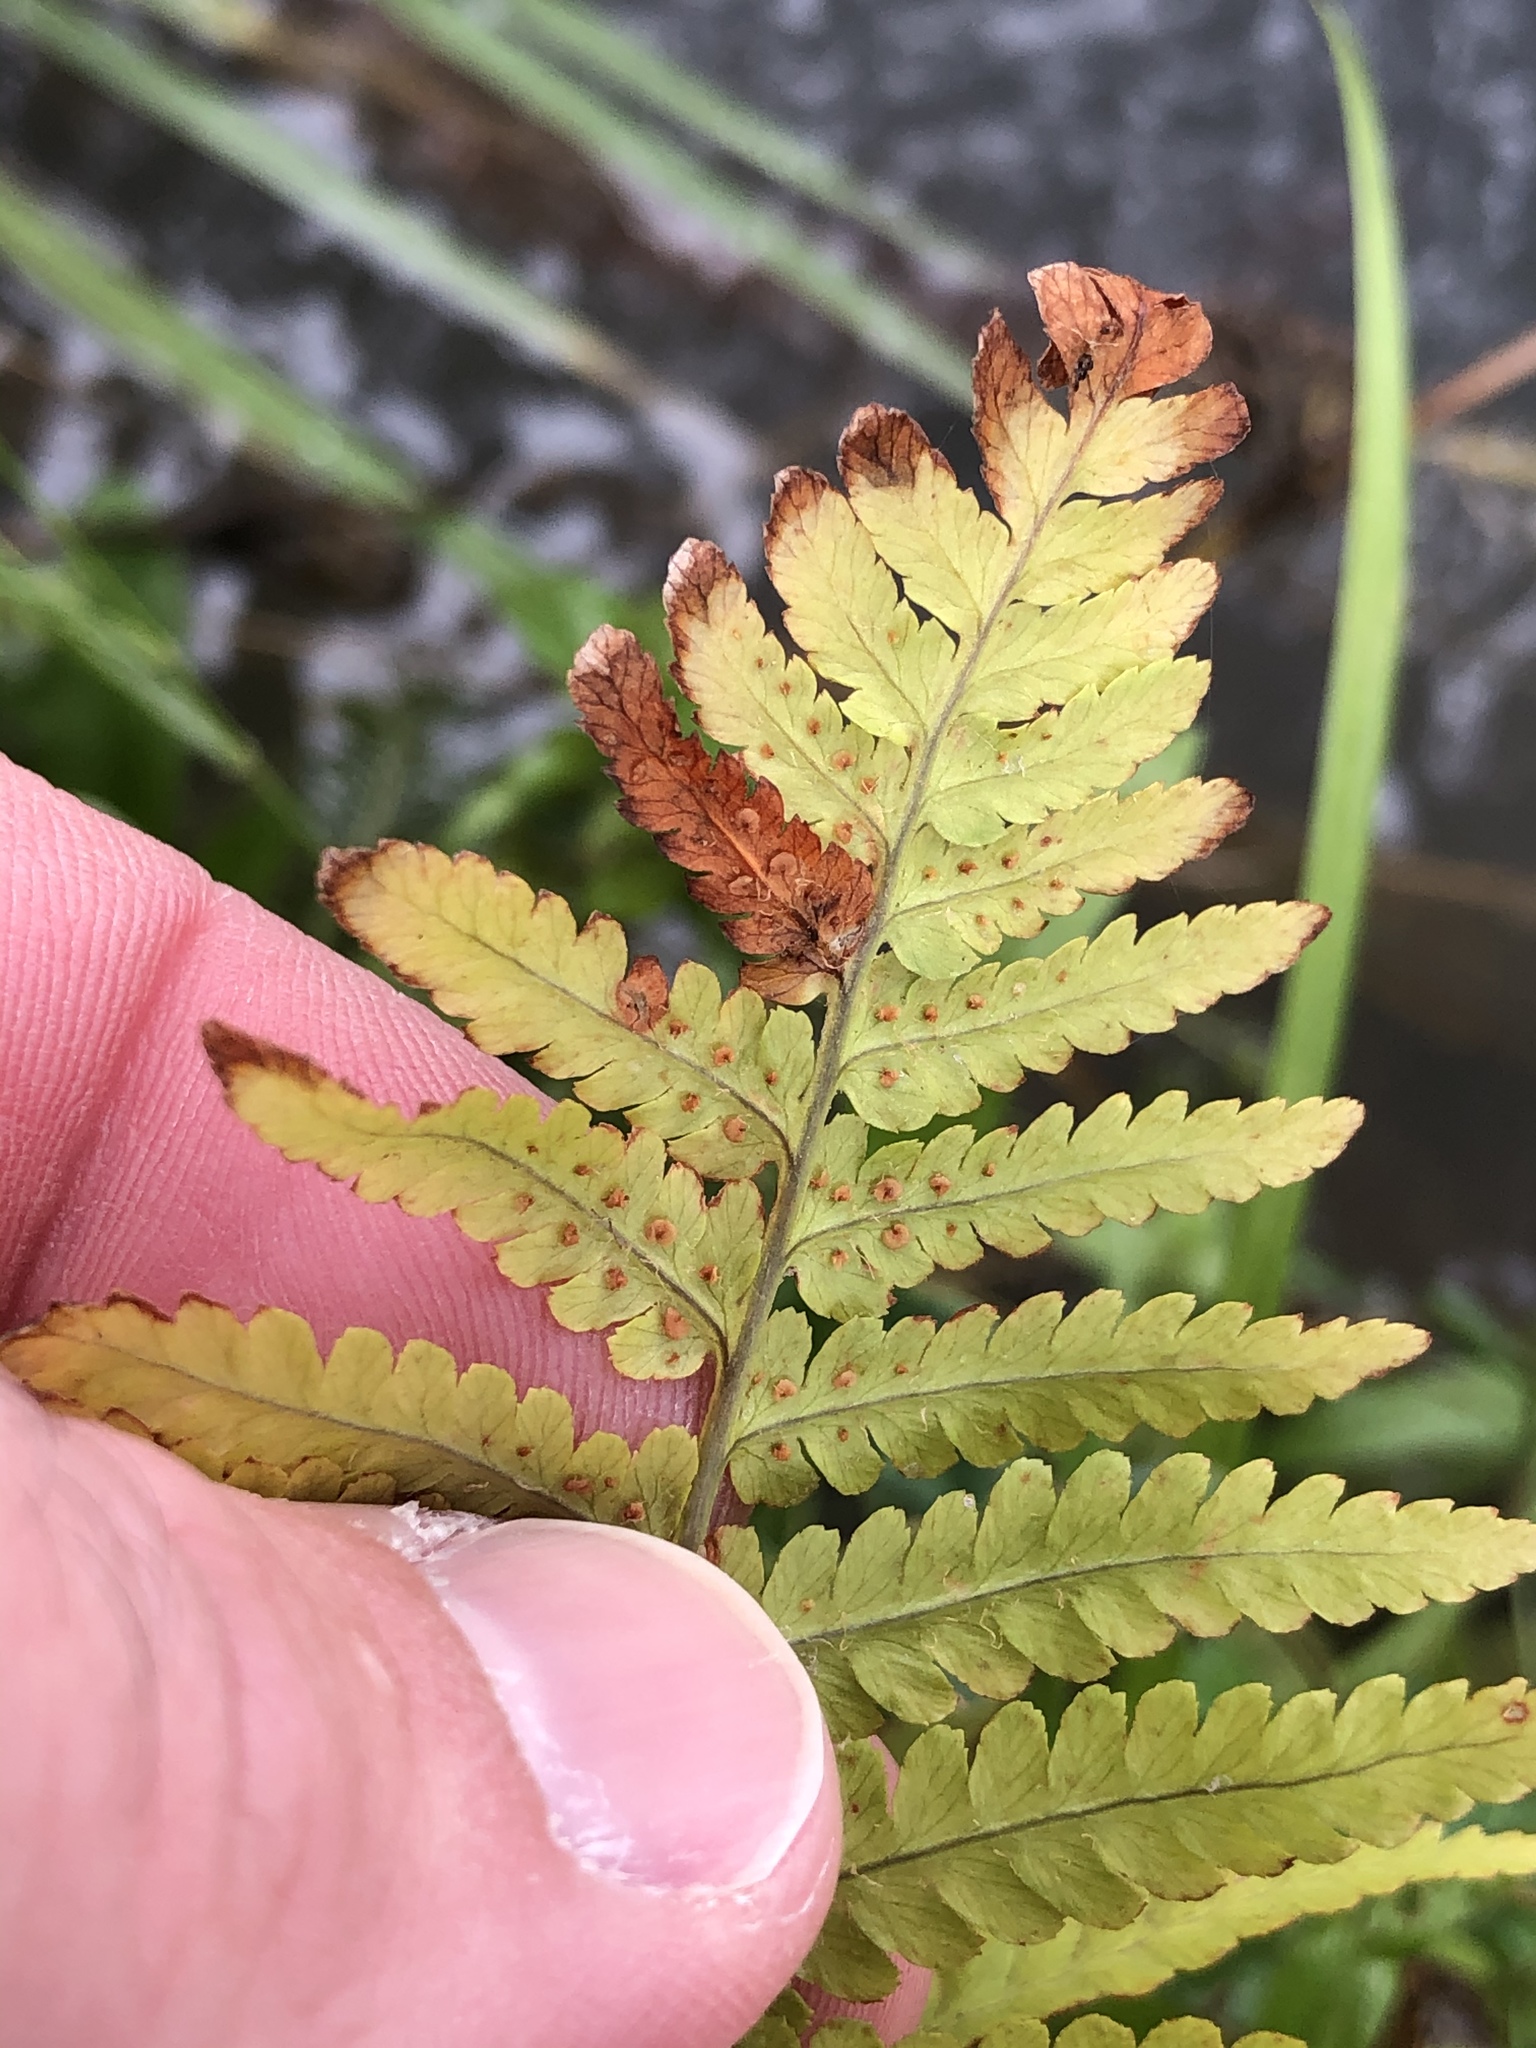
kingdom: Plantae
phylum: Tracheophyta
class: Polypodiopsida
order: Polypodiales
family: Dryopteridaceae
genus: Dryopteris
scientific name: Dryopteris filix-mas
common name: Male fern
